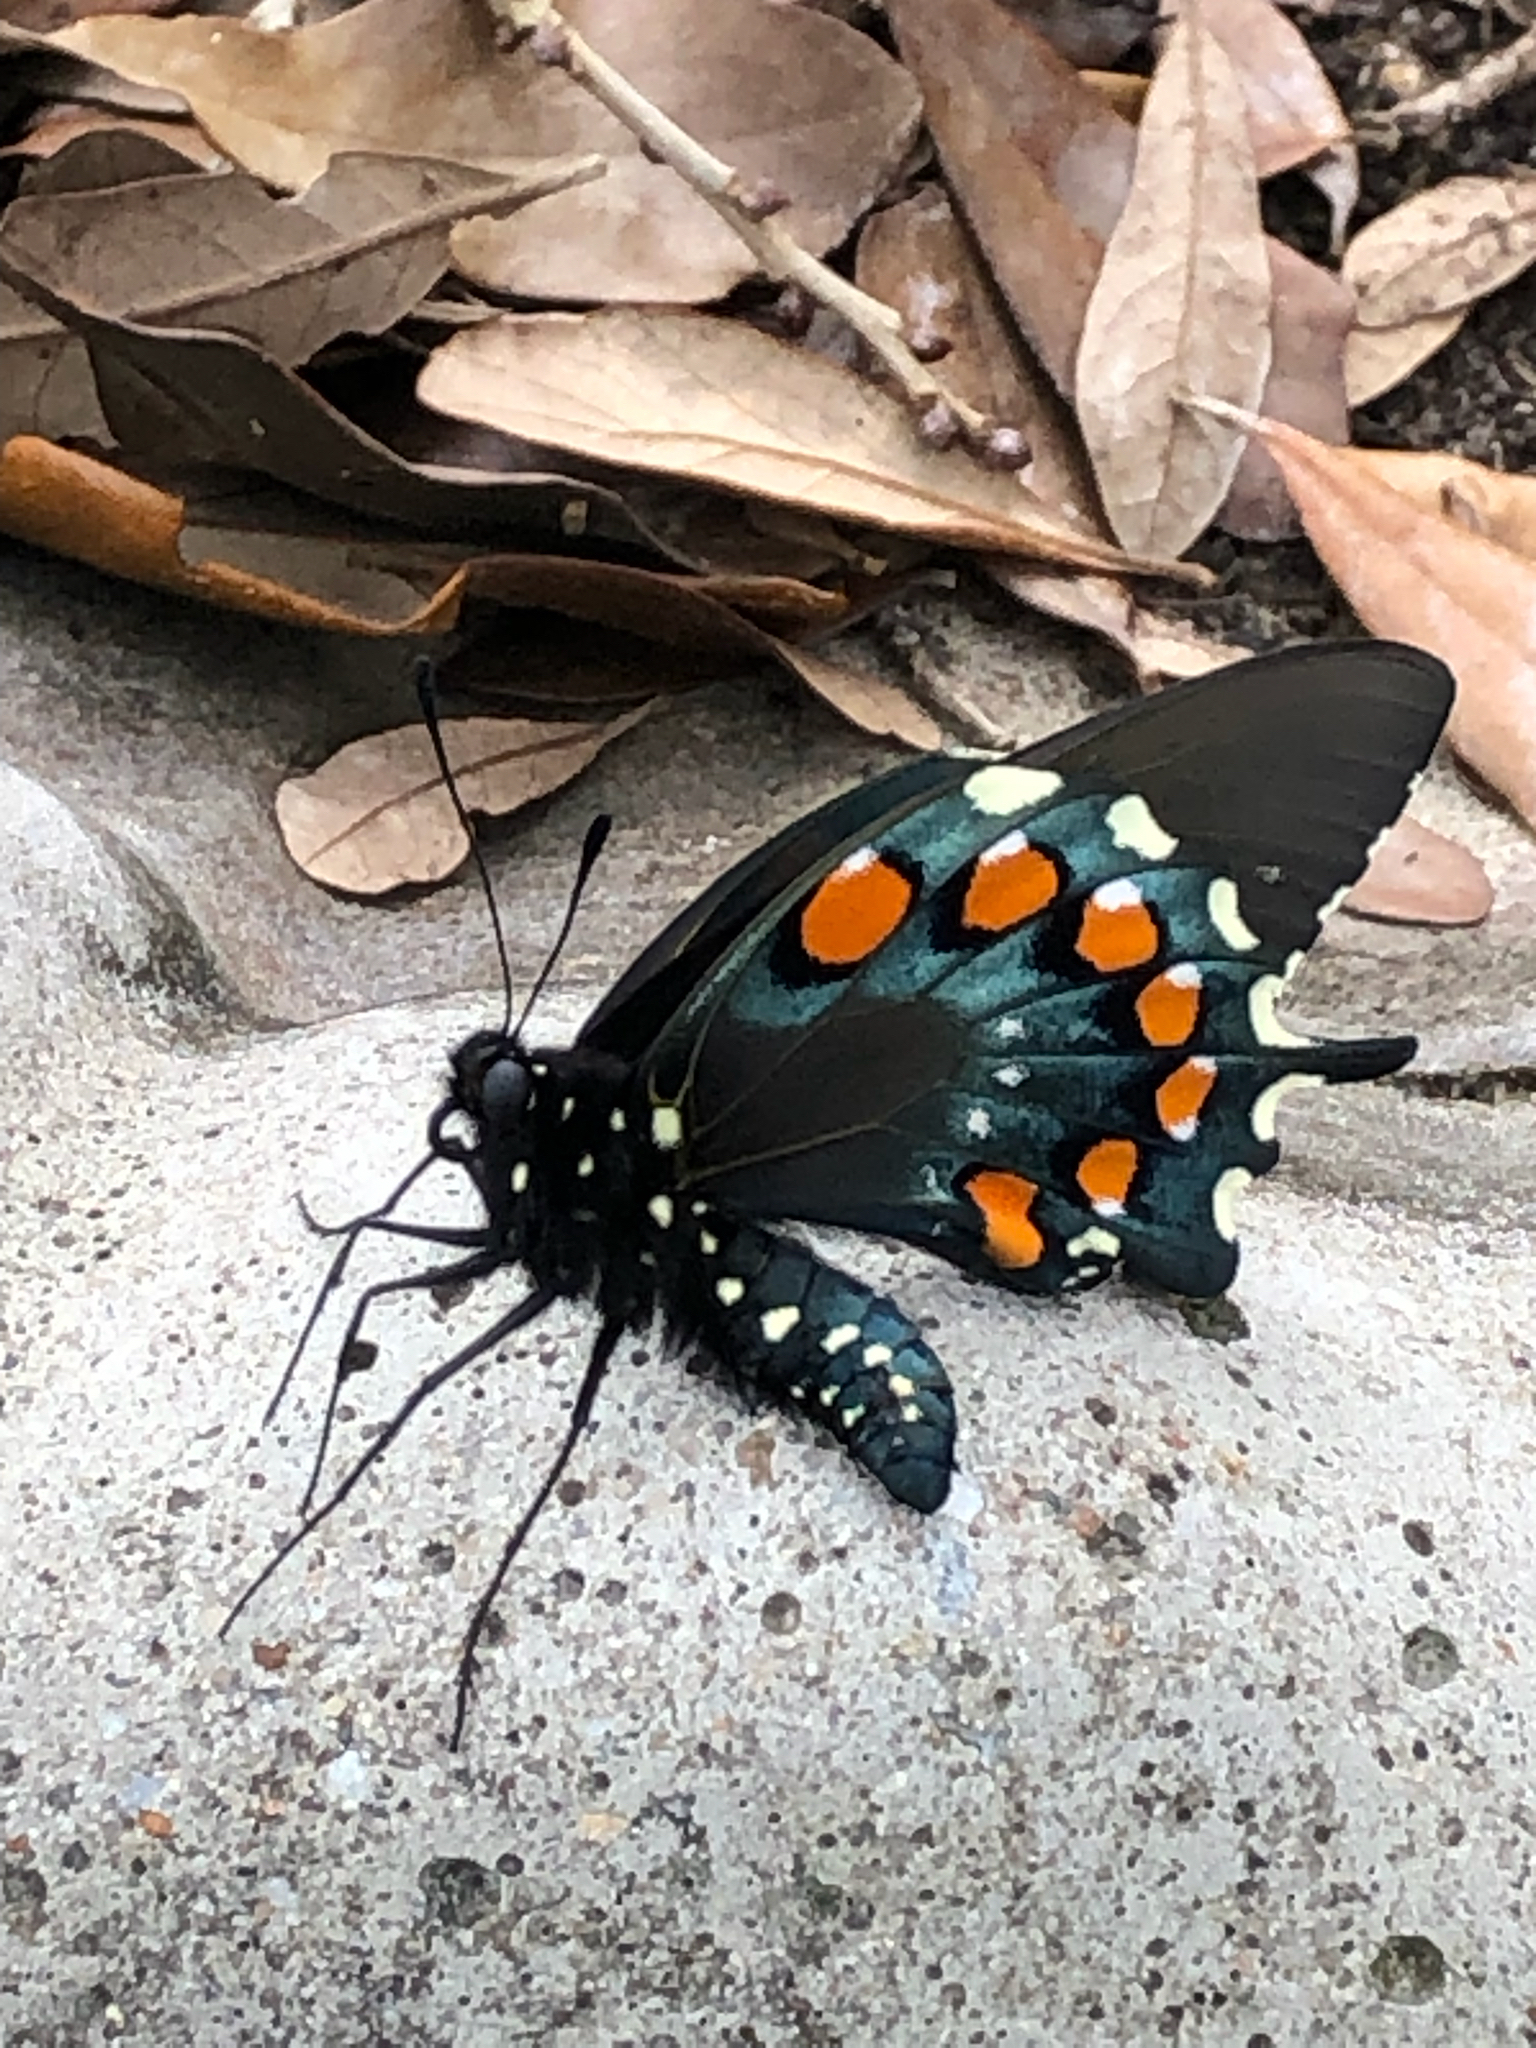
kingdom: Animalia
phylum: Arthropoda
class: Insecta
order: Lepidoptera
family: Papilionidae
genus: Battus
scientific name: Battus philenor
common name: Pipevine swallowtail
